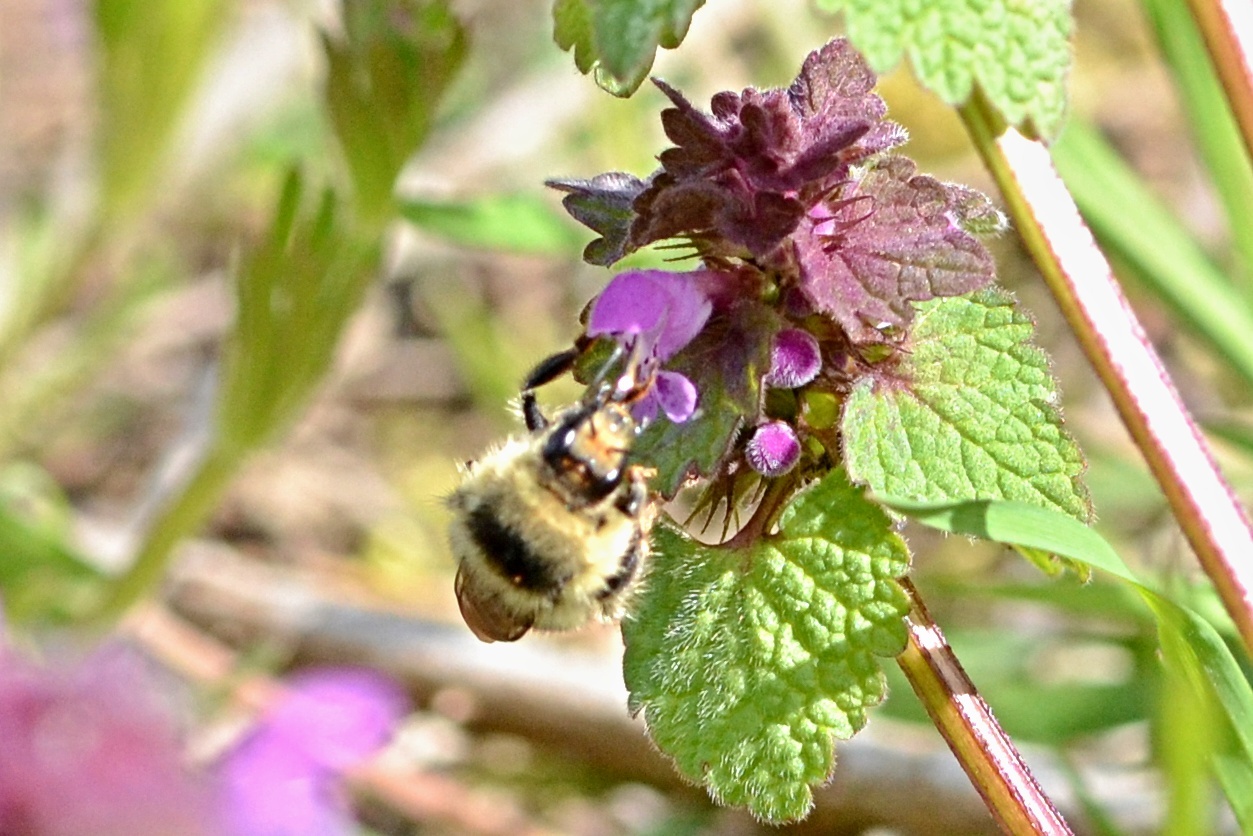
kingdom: Animalia
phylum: Arthropoda
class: Insecta
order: Hymenoptera
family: Apidae
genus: Bombus
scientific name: Bombus sylvarum
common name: Shrill carder bee
